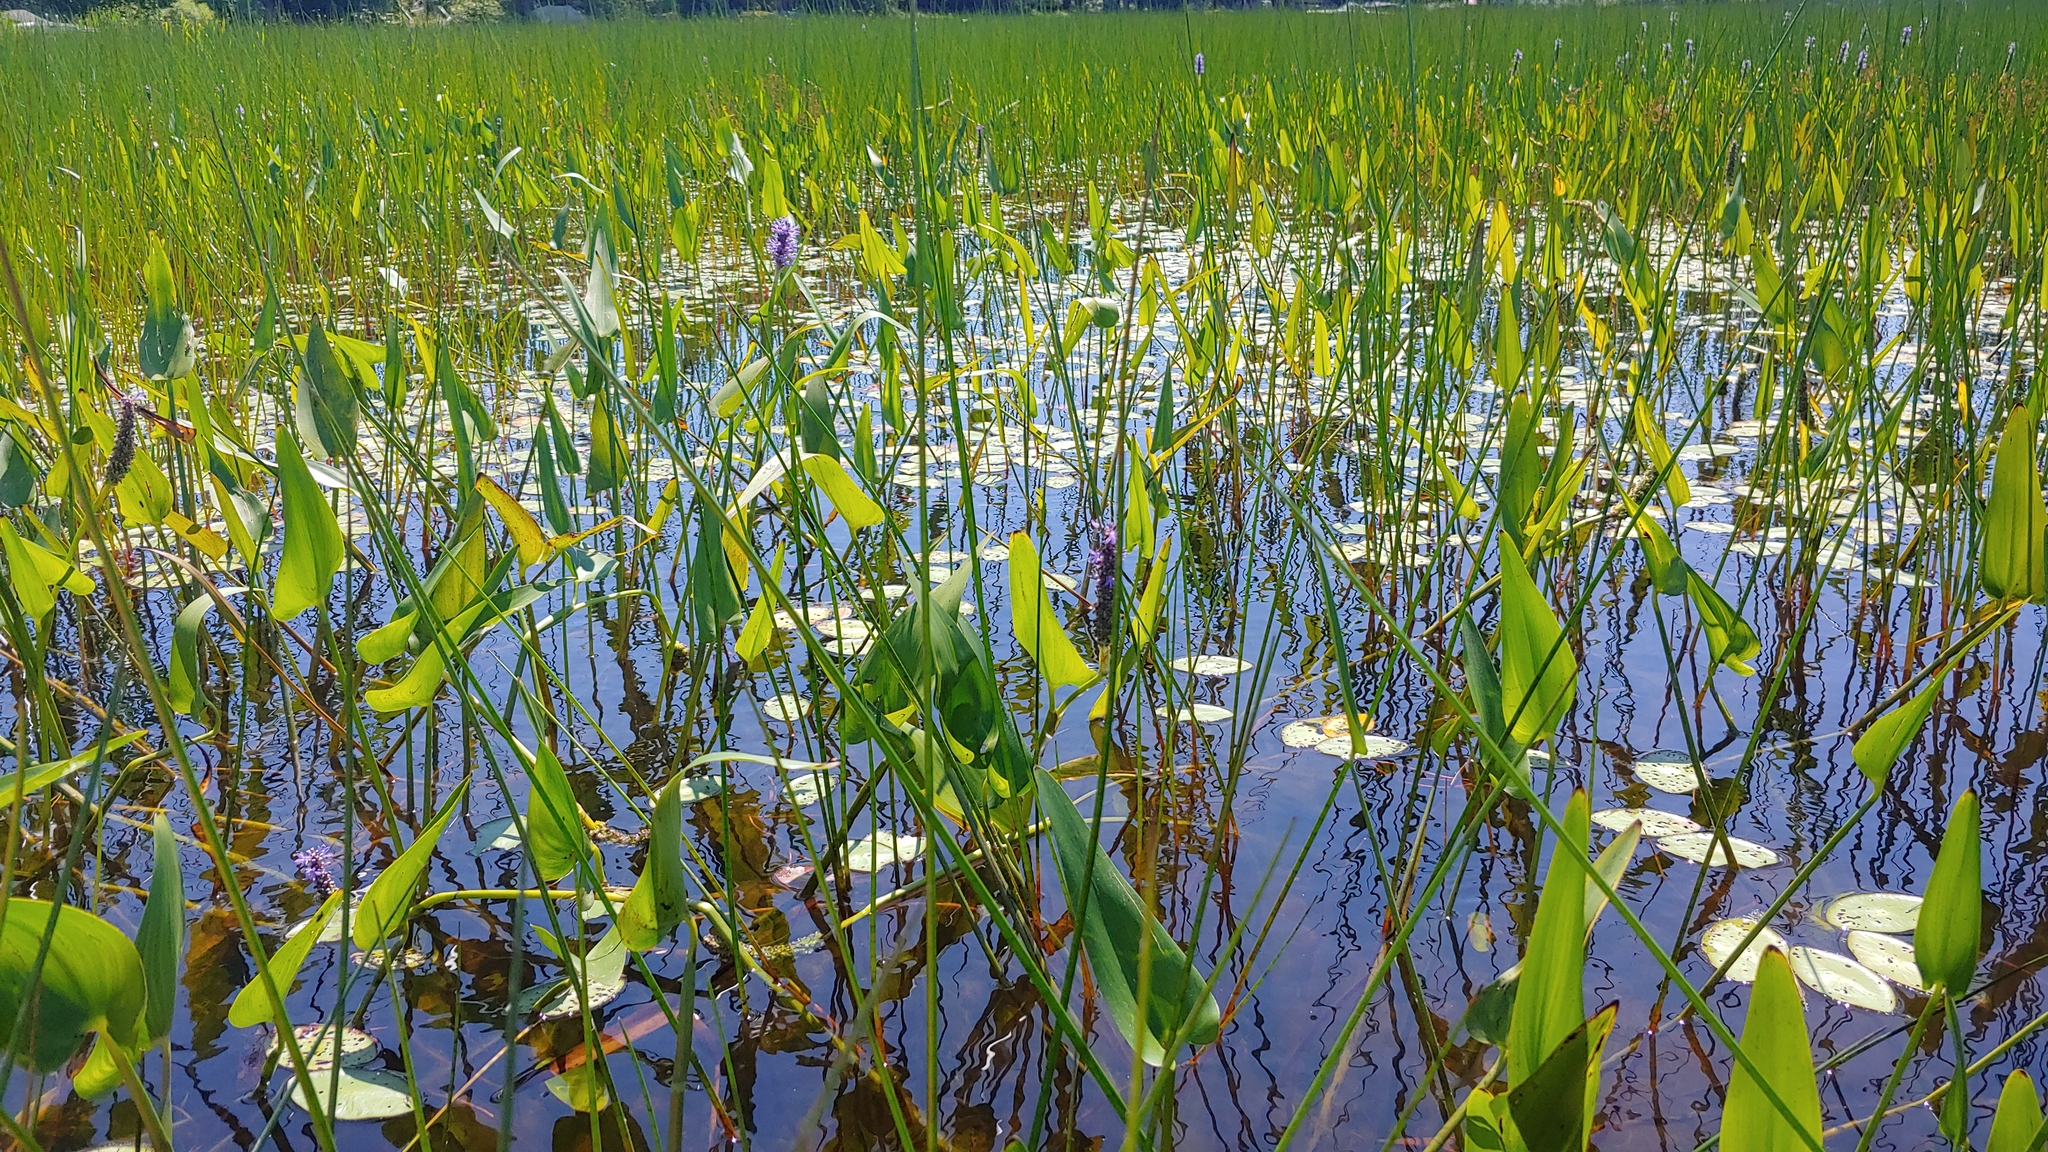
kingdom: Plantae
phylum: Tracheophyta
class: Liliopsida
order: Commelinales
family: Pontederiaceae
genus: Pontederia
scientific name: Pontederia cordata
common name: Pickerelweed
